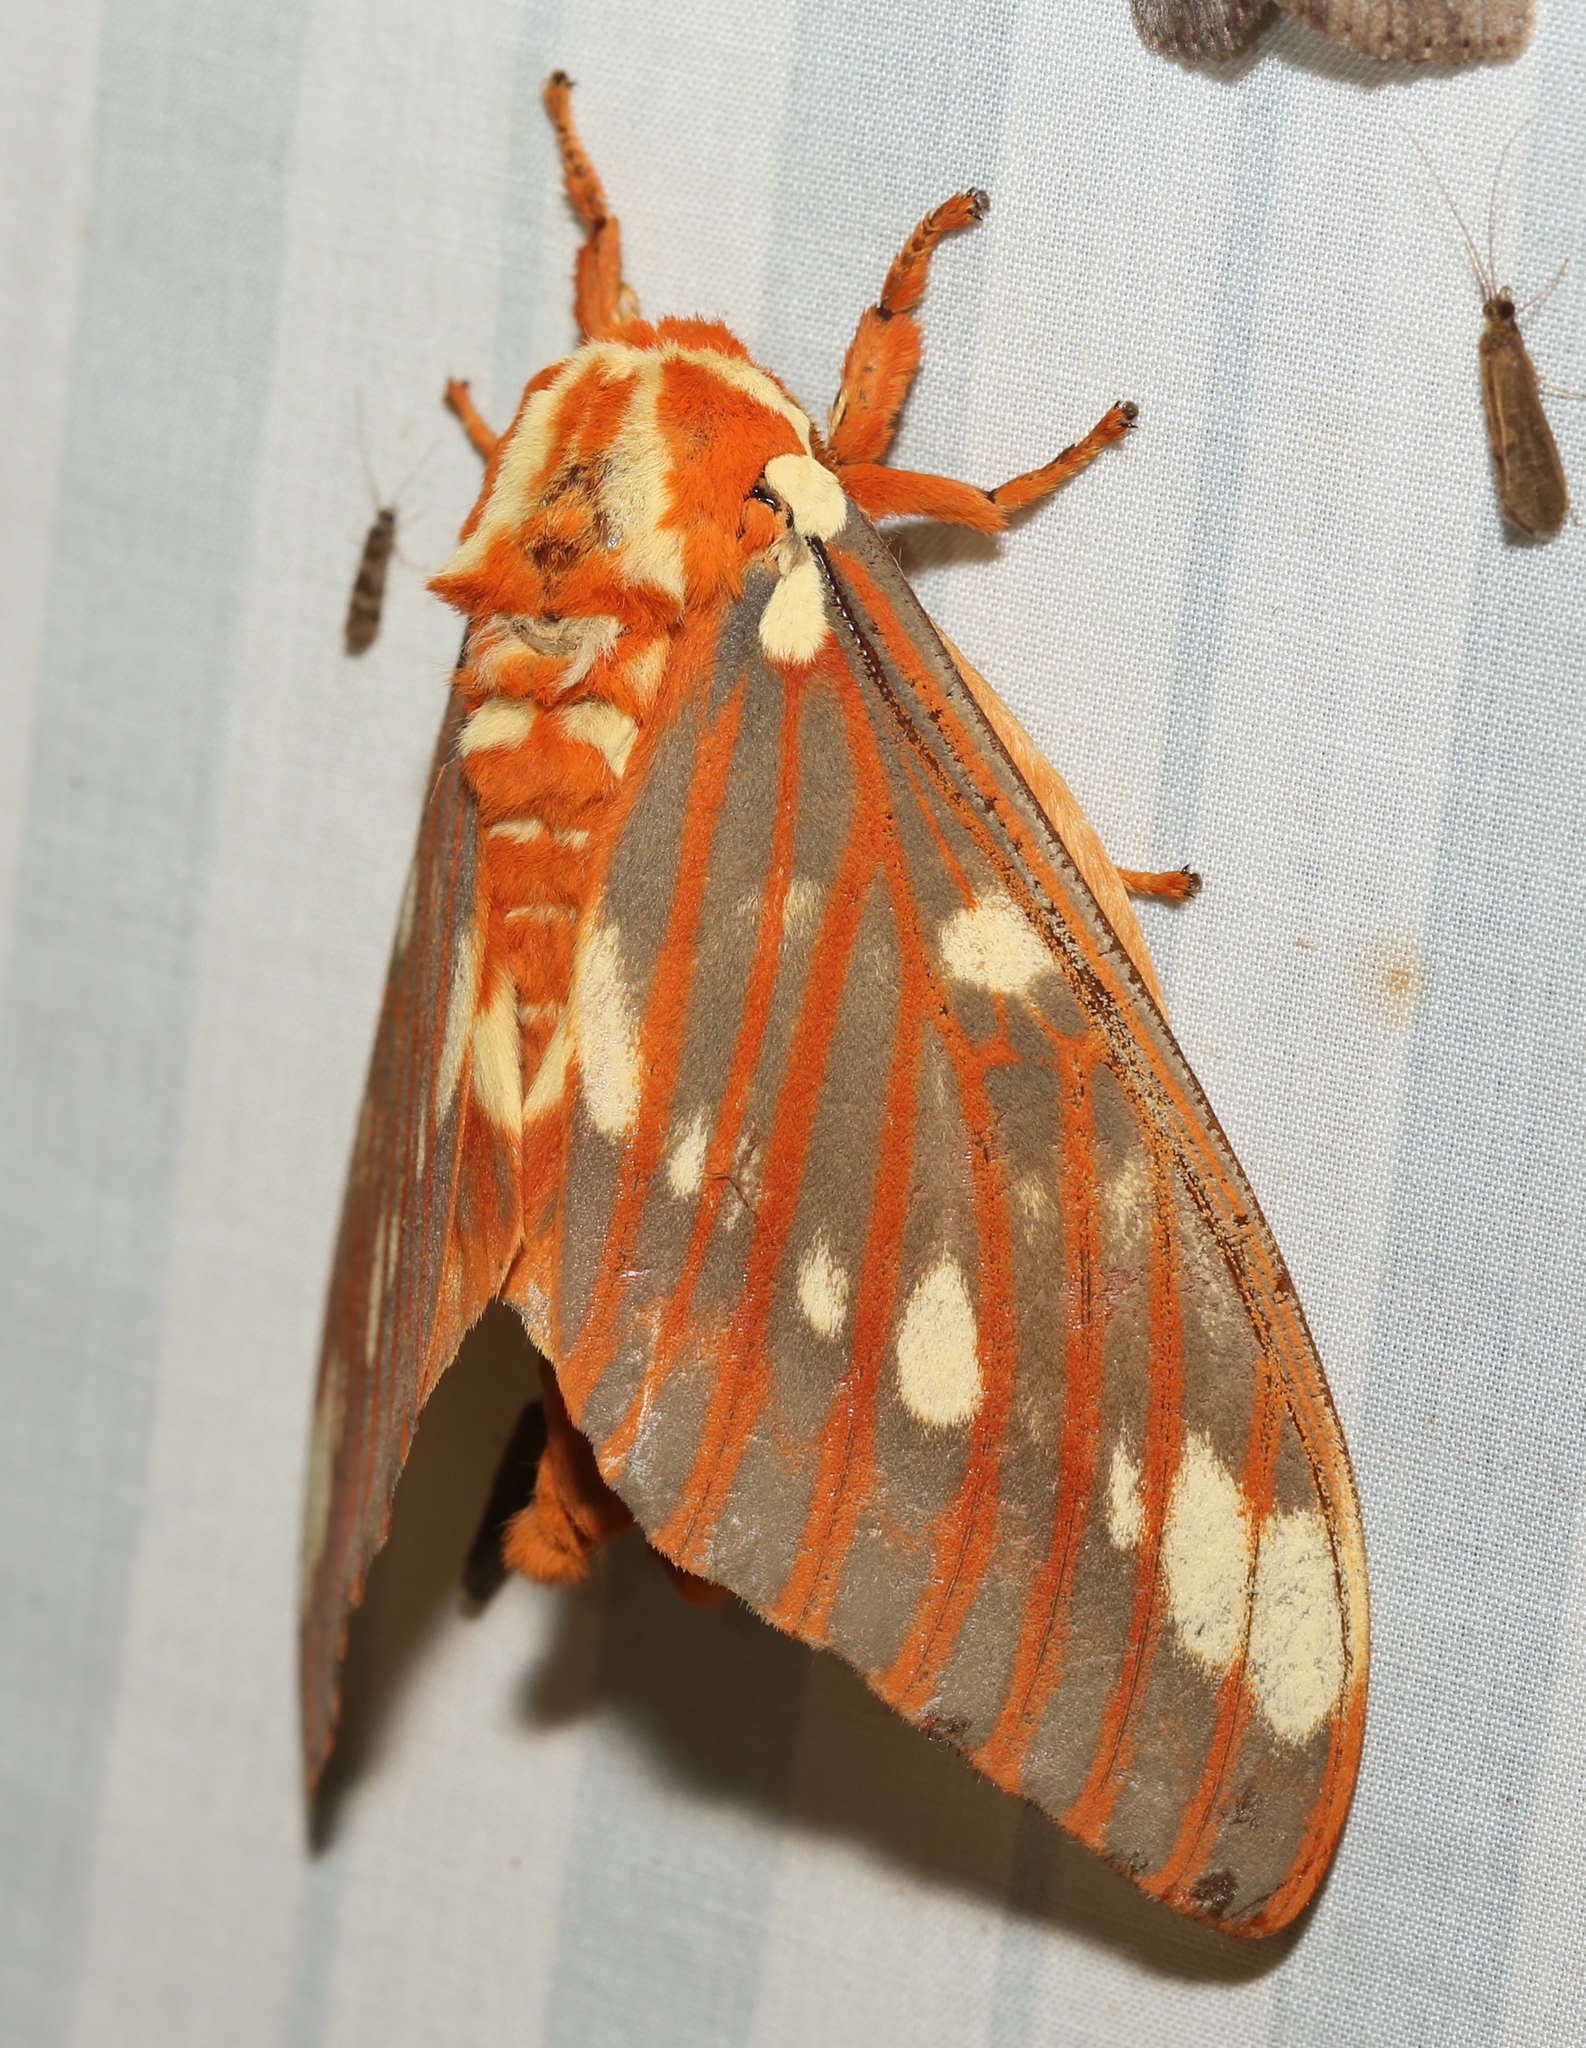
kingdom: Animalia
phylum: Arthropoda
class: Insecta
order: Lepidoptera
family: Saturniidae
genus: Citheronia
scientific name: Citheronia regalis
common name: Hickory horned devil
